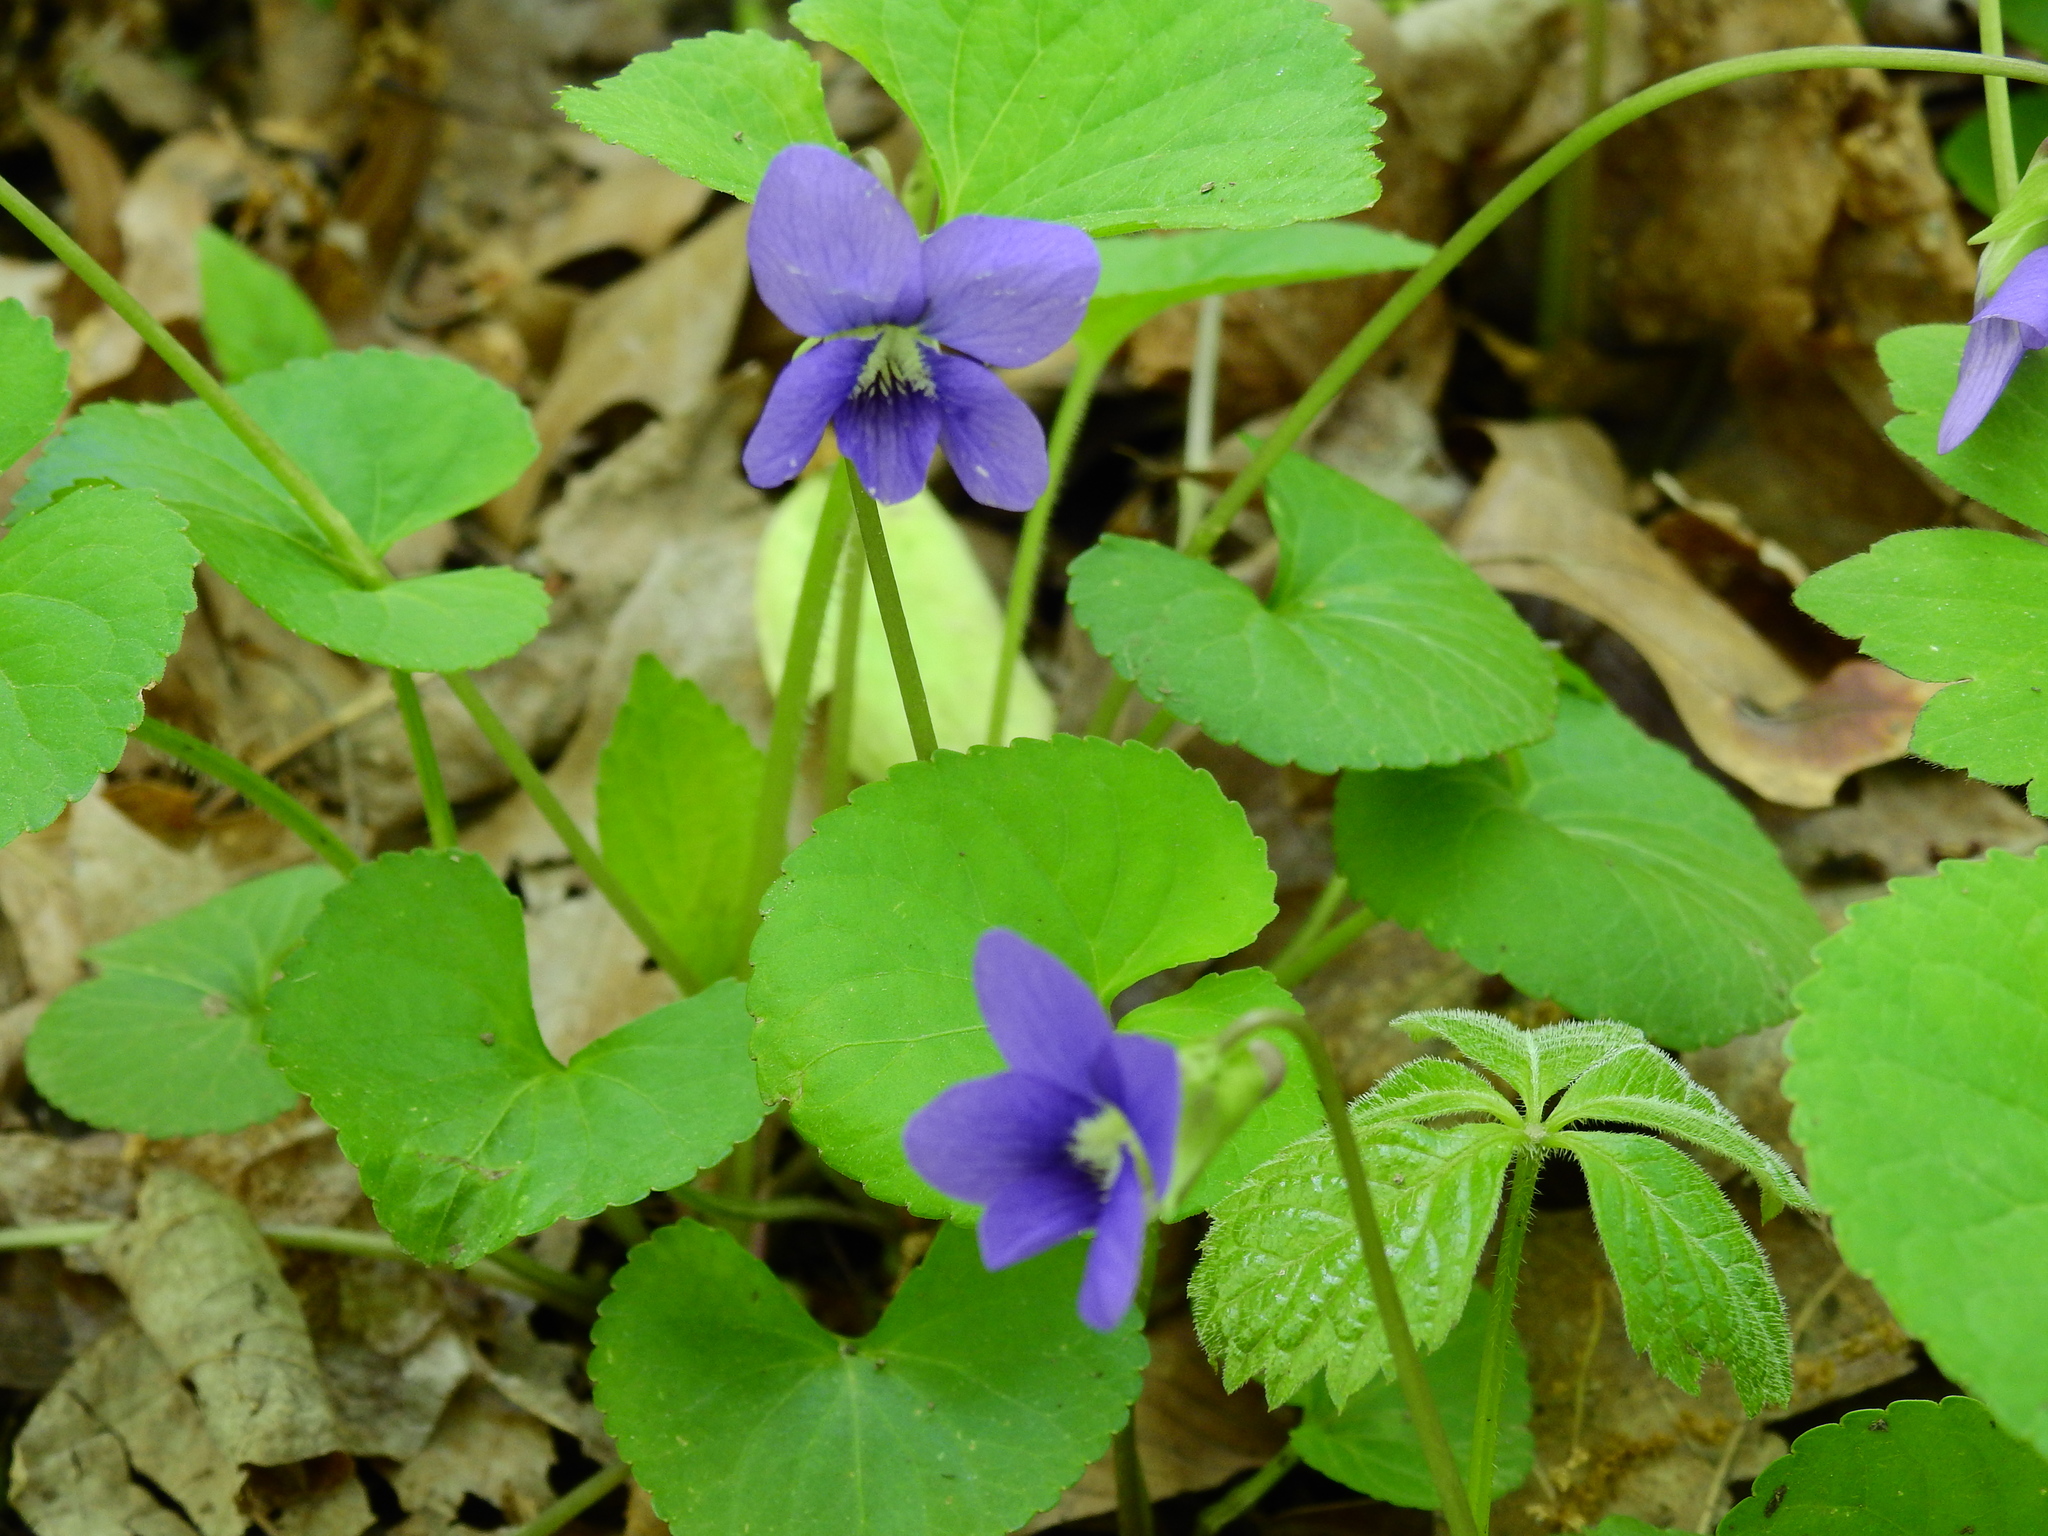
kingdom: Plantae
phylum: Tracheophyta
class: Magnoliopsida
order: Malpighiales
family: Violaceae
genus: Viola
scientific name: Viola sororia
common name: Dooryard violet
